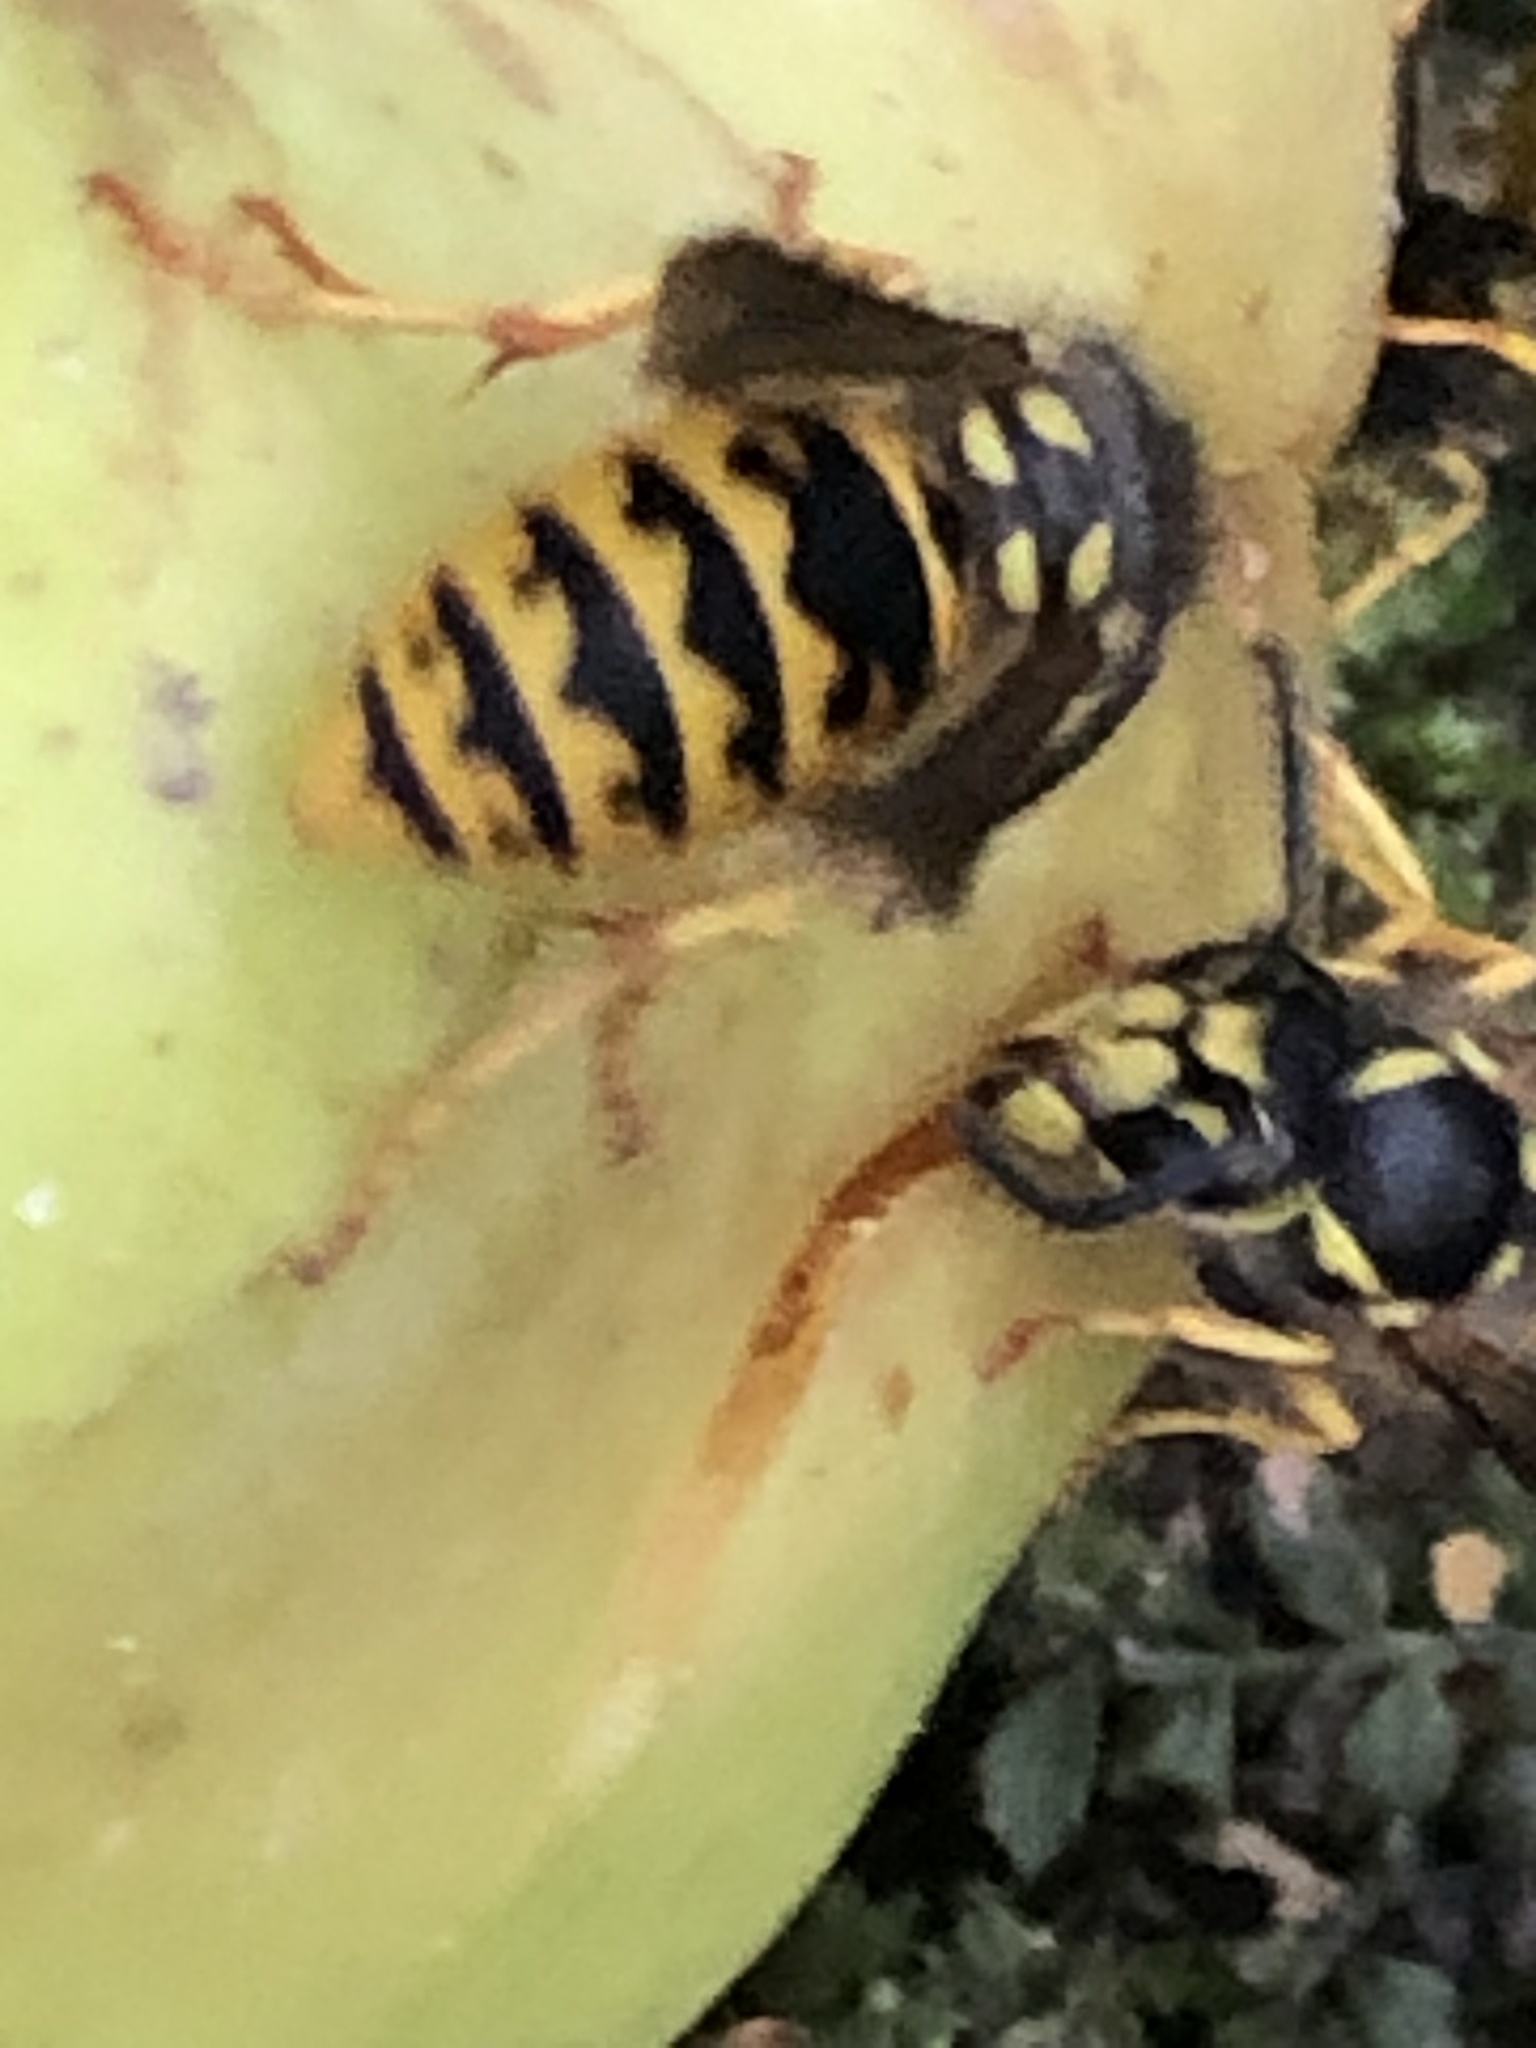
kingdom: Animalia
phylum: Arthropoda
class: Insecta
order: Hymenoptera
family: Vespidae
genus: Vespula
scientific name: Vespula germanica
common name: German wasp
